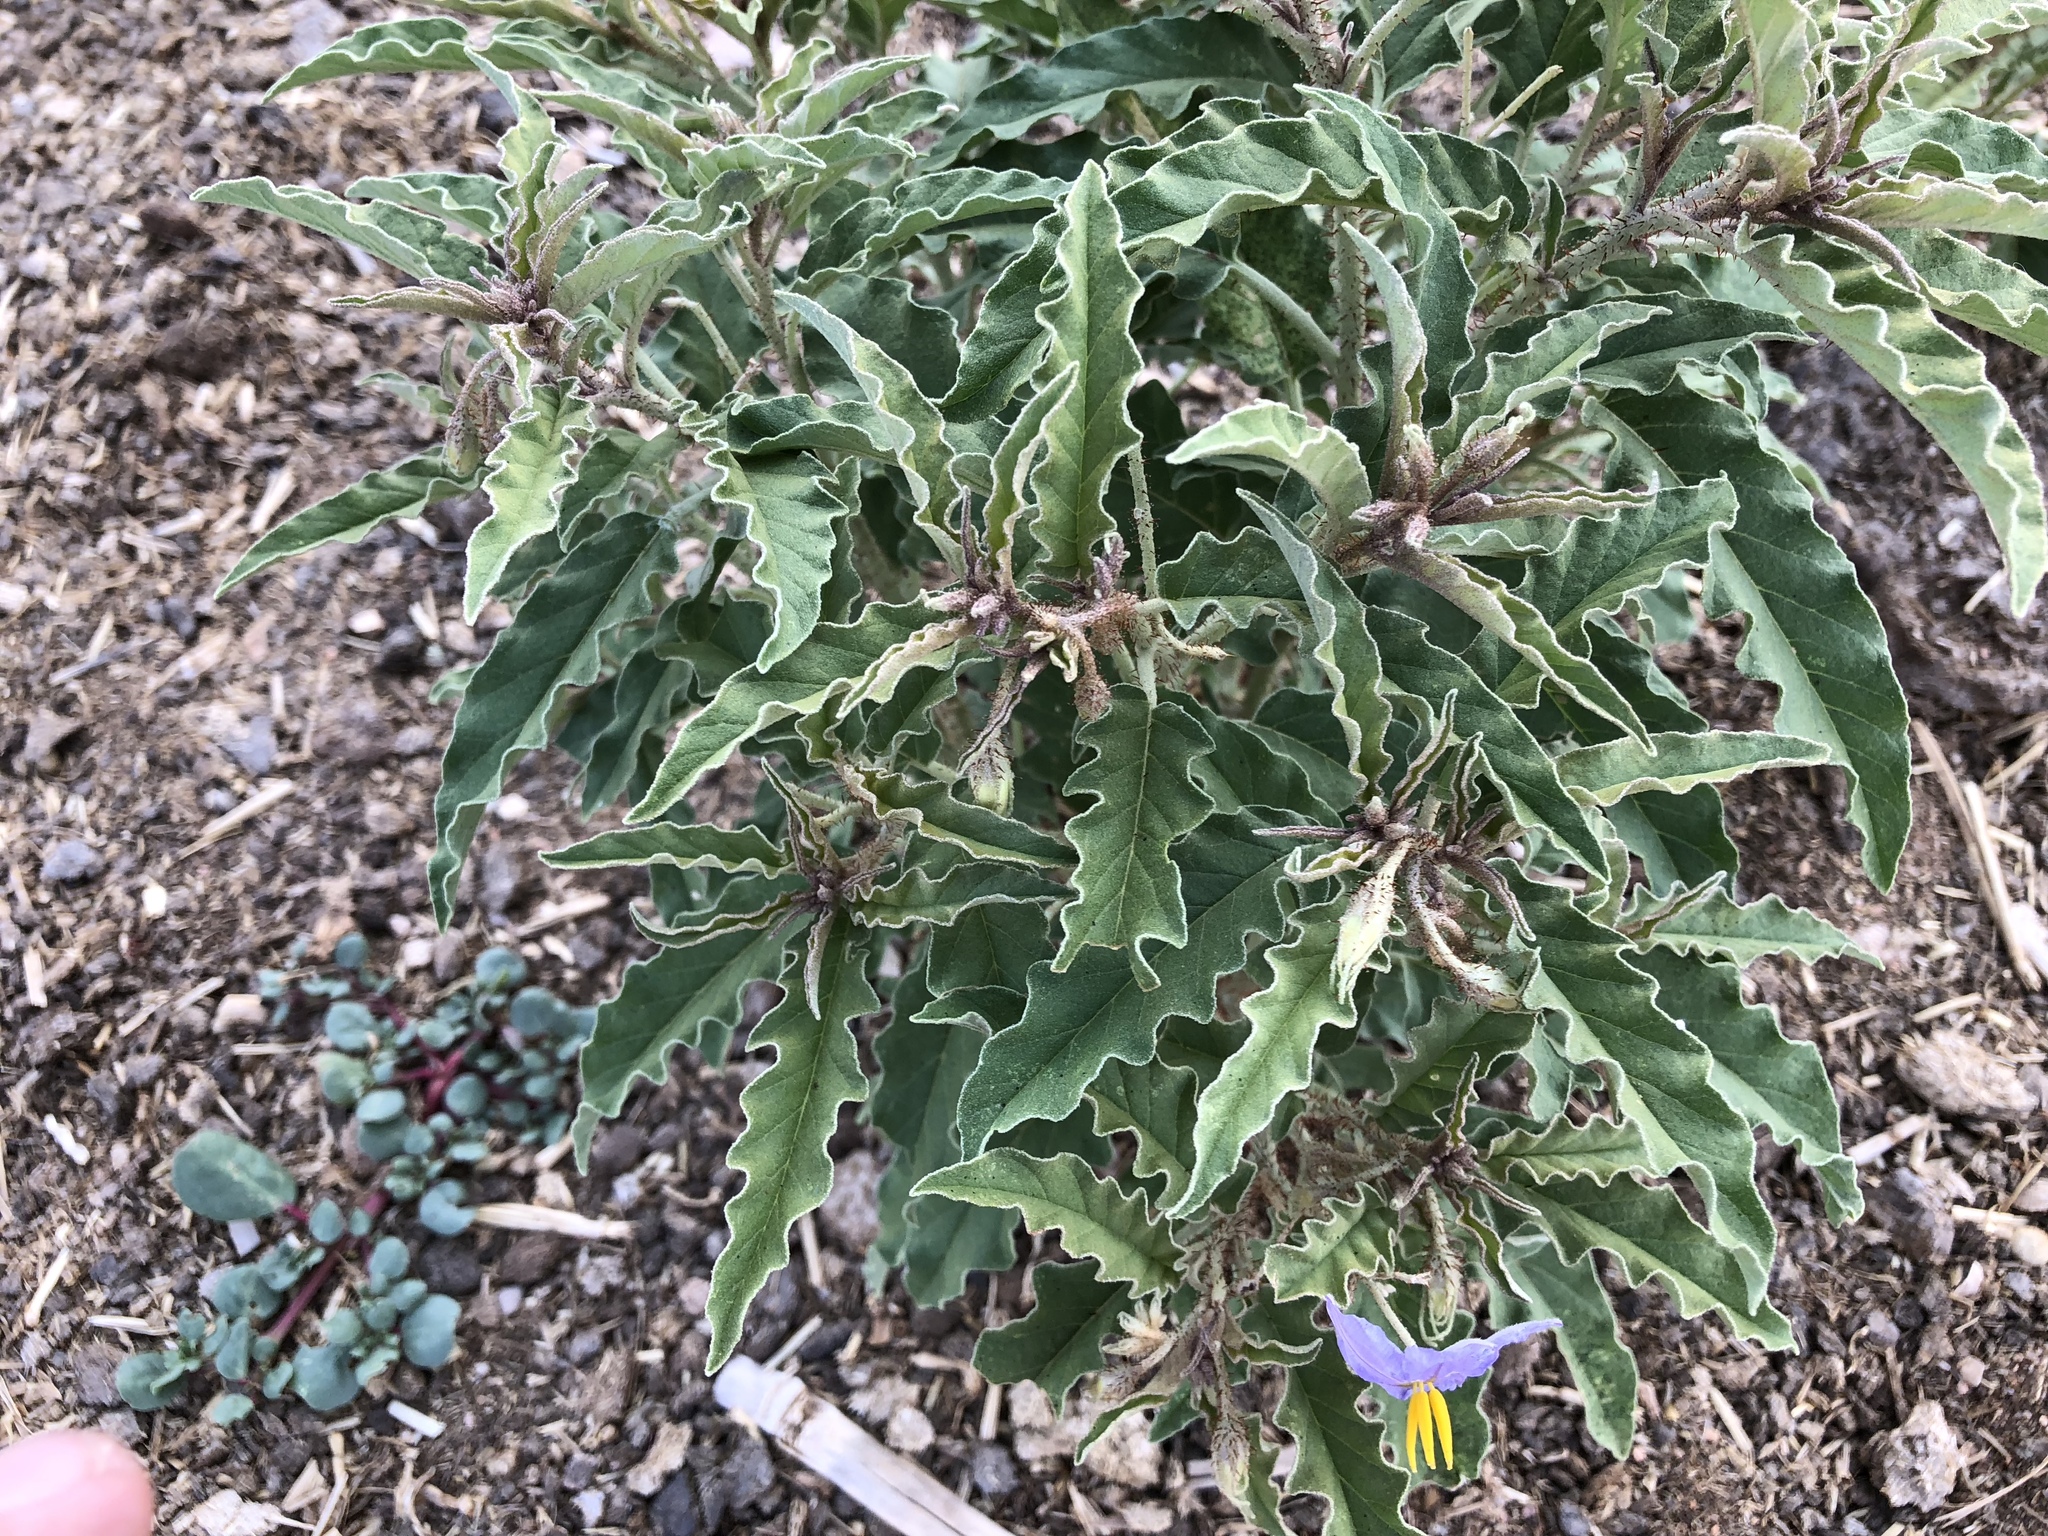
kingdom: Plantae
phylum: Tracheophyta
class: Magnoliopsida
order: Solanales
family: Solanaceae
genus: Solanum
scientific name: Solanum elaeagnifolium
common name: Silverleaf nightshade
